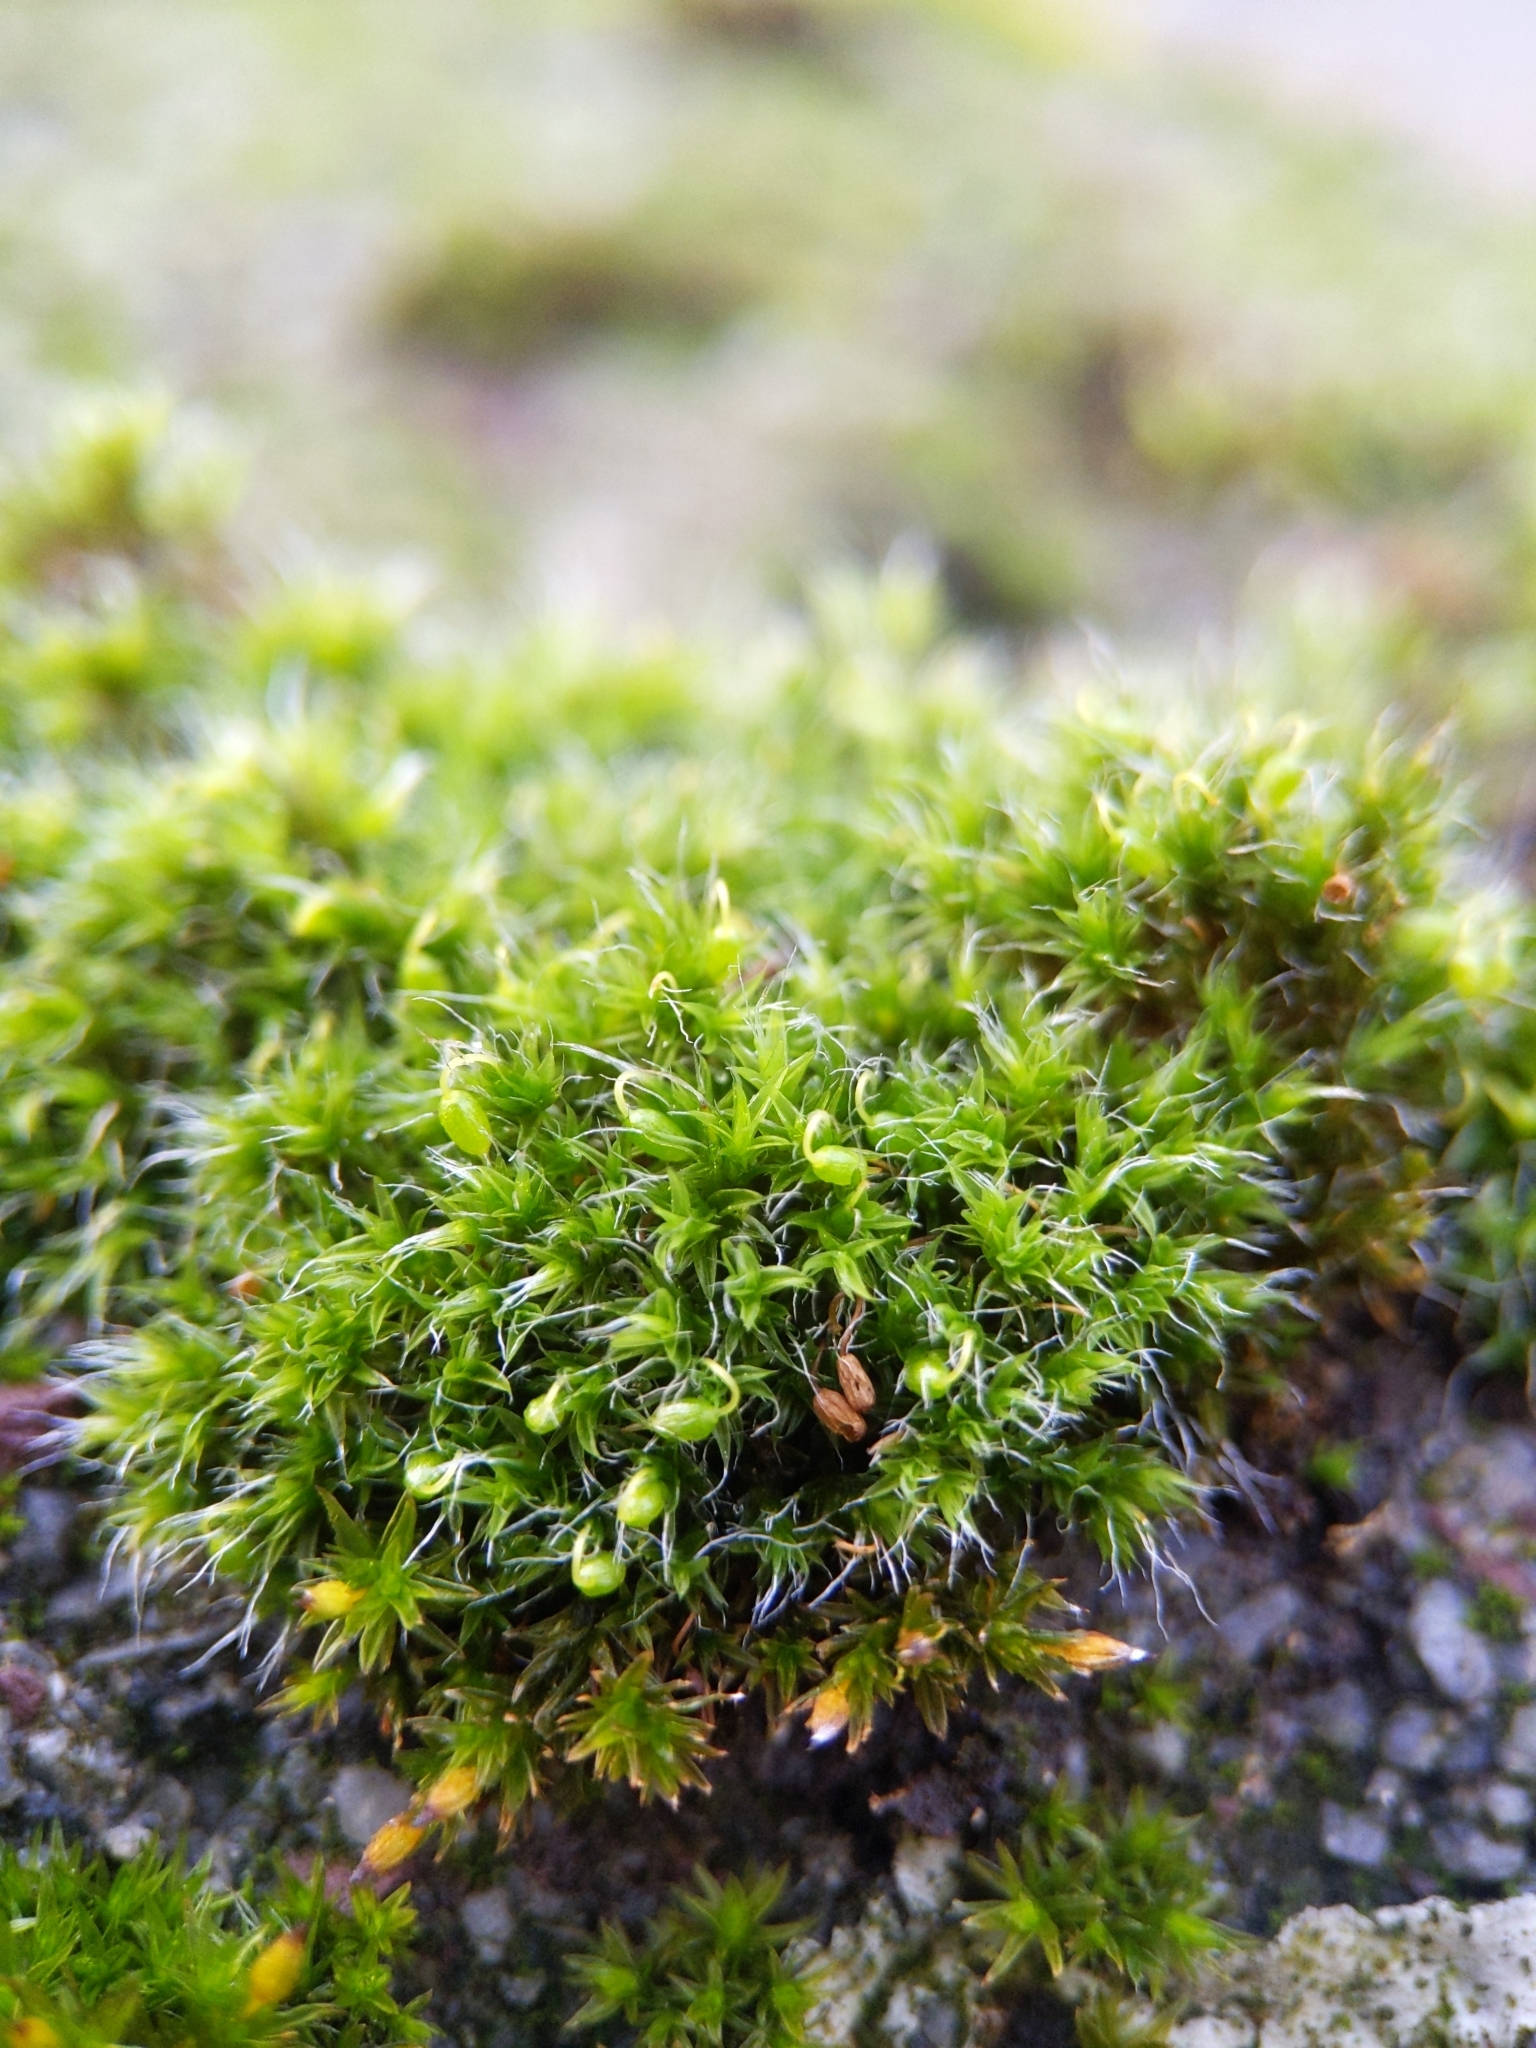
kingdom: Plantae
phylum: Bryophyta
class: Bryopsida
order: Grimmiales
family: Grimmiaceae
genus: Grimmia
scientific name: Grimmia pulvinata
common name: Grey-cushioned grimmia
